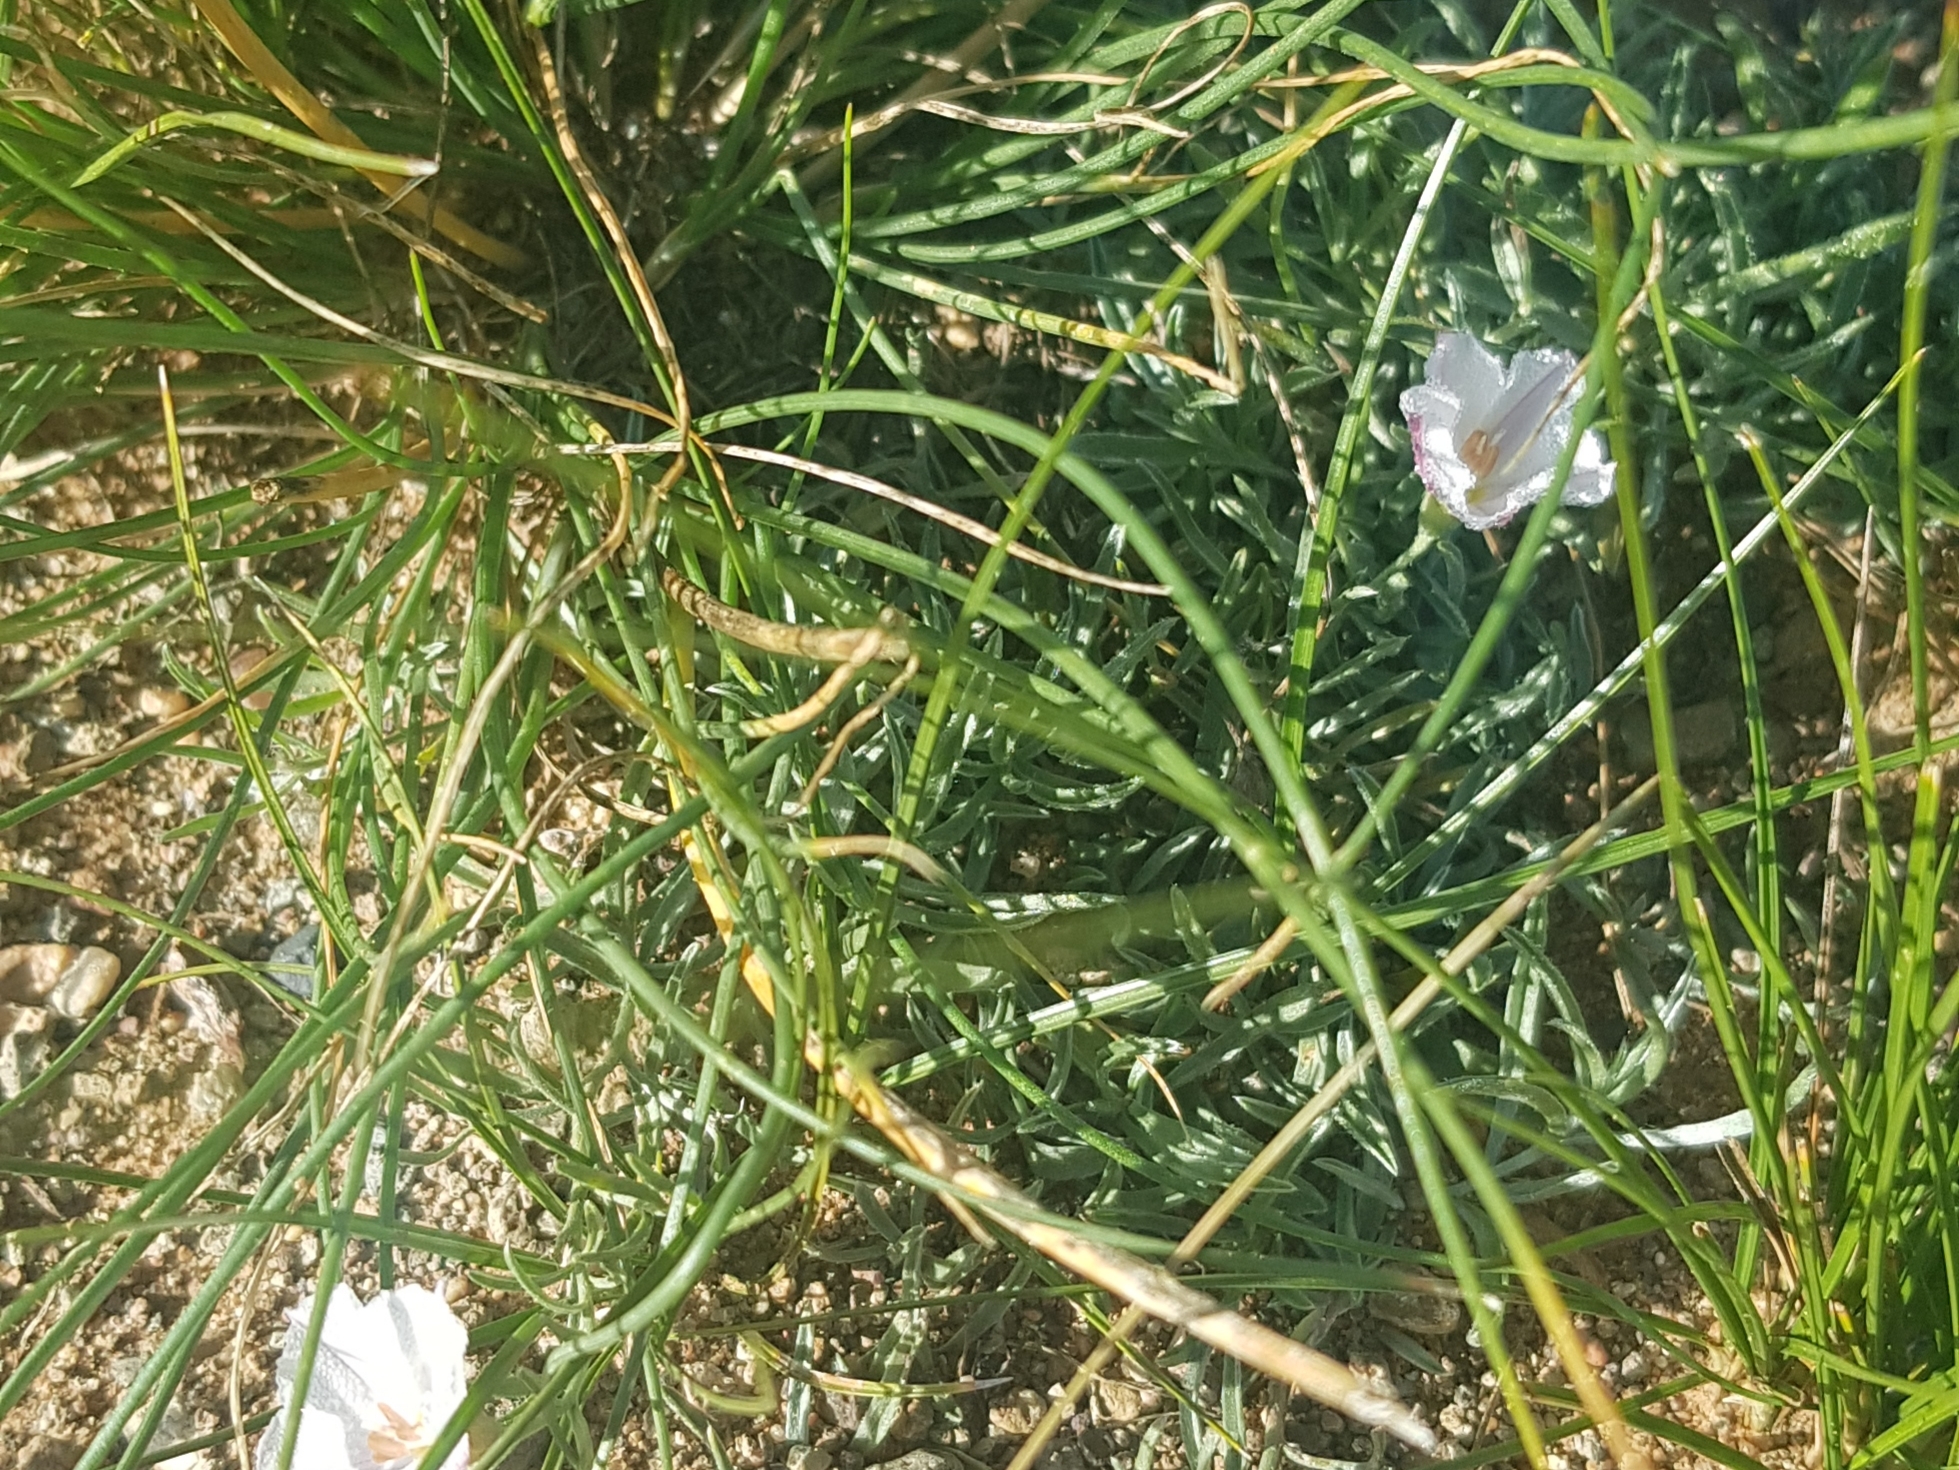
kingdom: Plantae
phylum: Tracheophyta
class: Magnoliopsida
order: Solanales
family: Convolvulaceae
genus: Convolvulus
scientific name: Convolvulus ammannii
